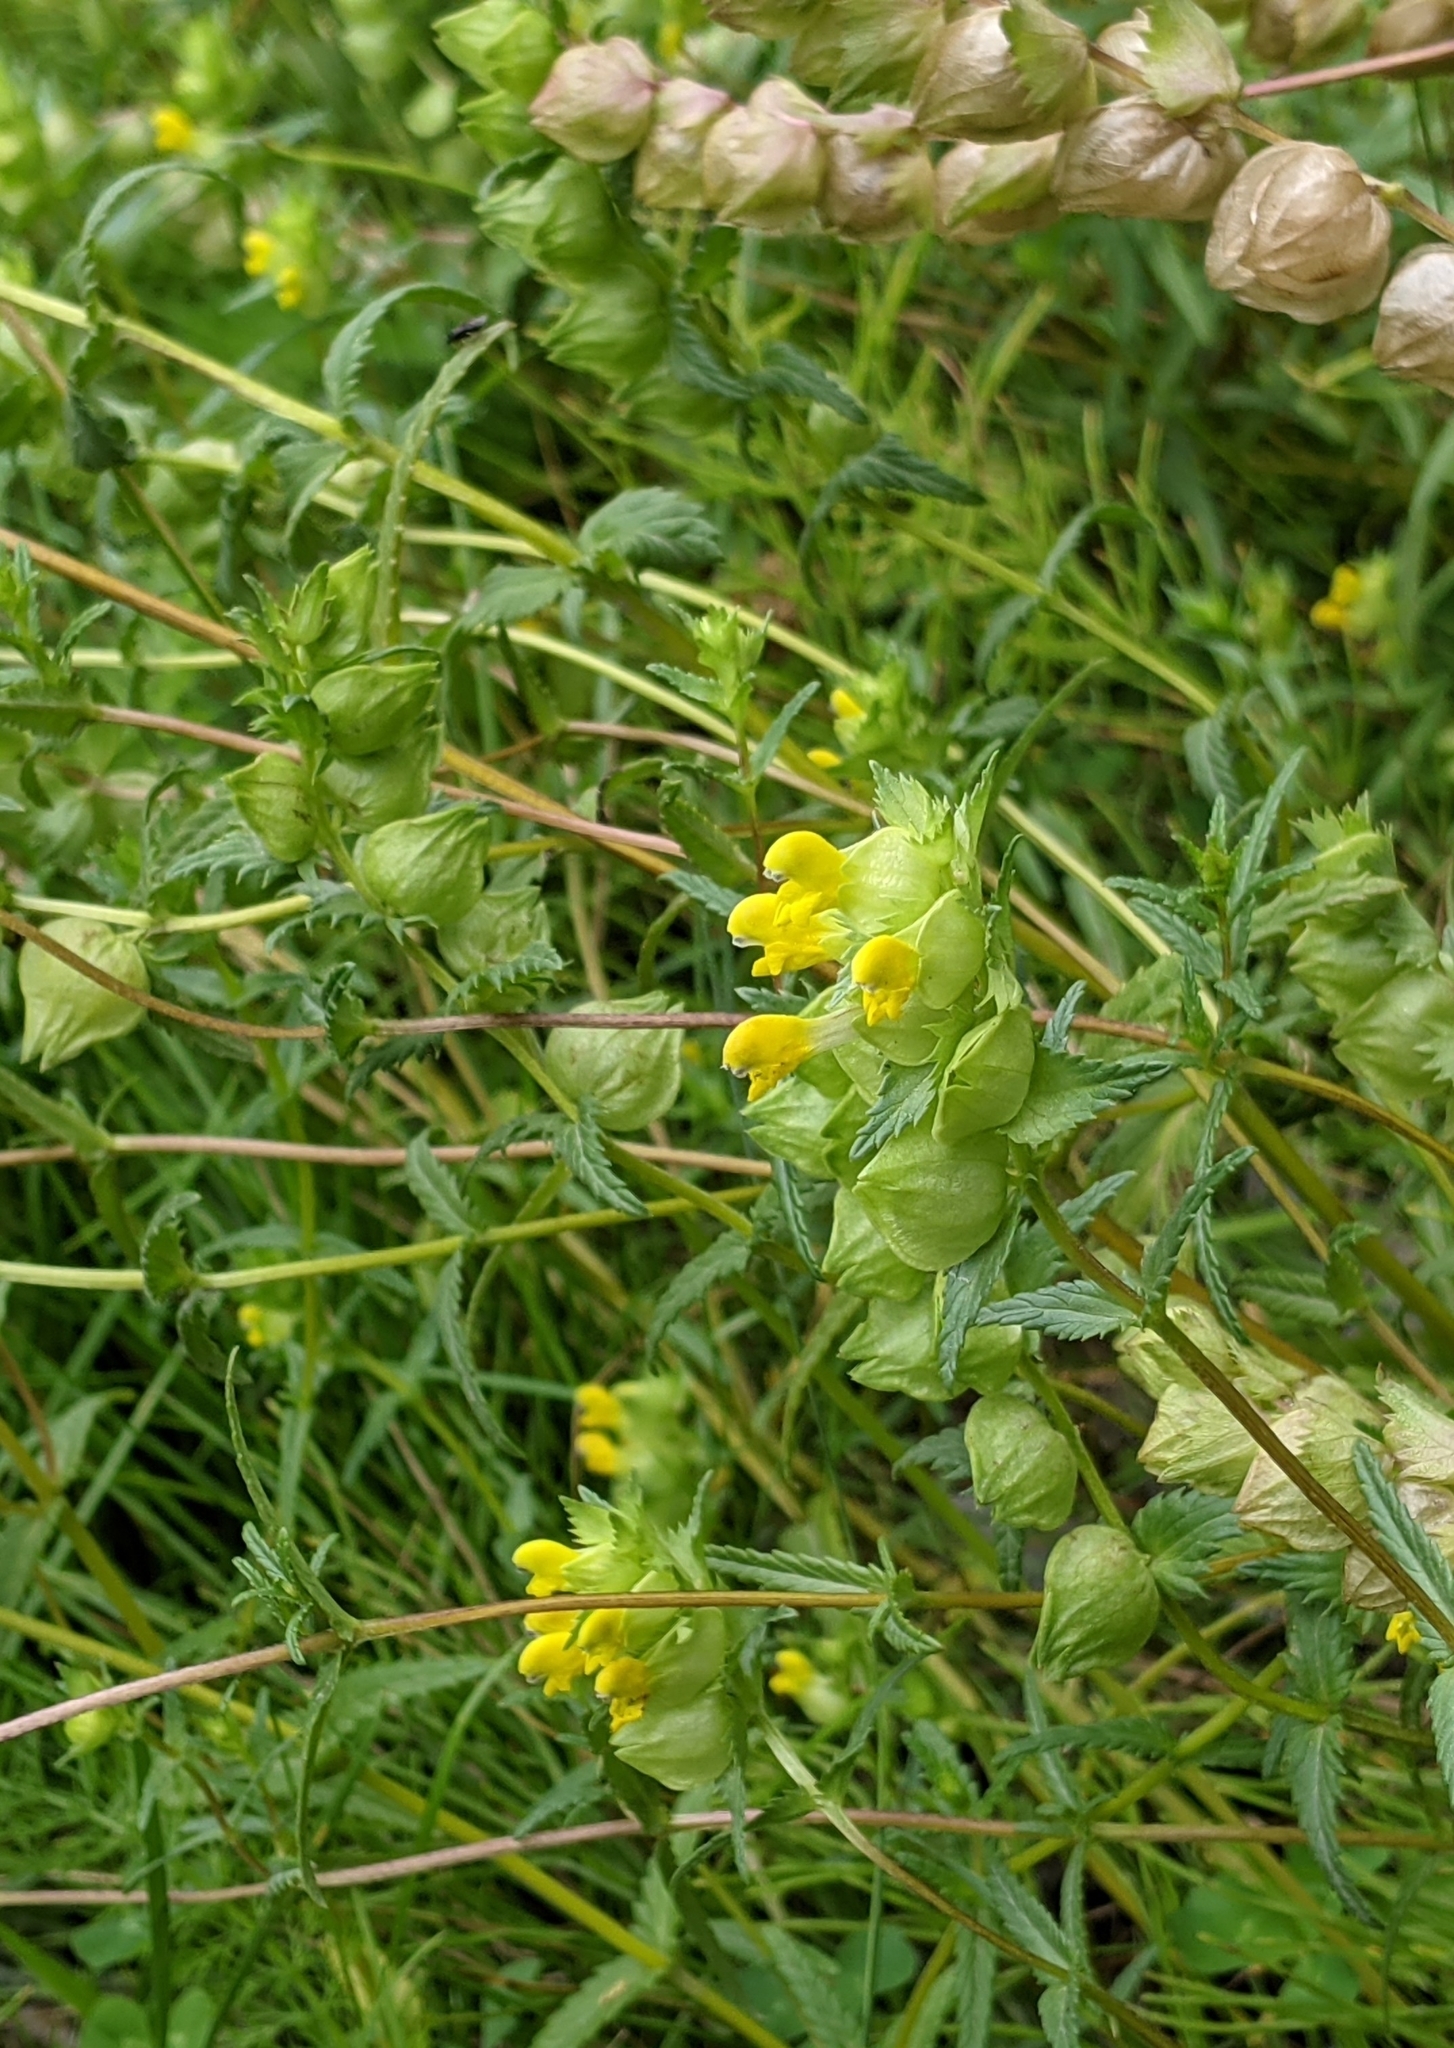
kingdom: Plantae
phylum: Tracheophyta
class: Magnoliopsida
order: Lamiales
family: Orobanchaceae
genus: Rhinanthus
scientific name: Rhinanthus minor
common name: Yellow-rattle
